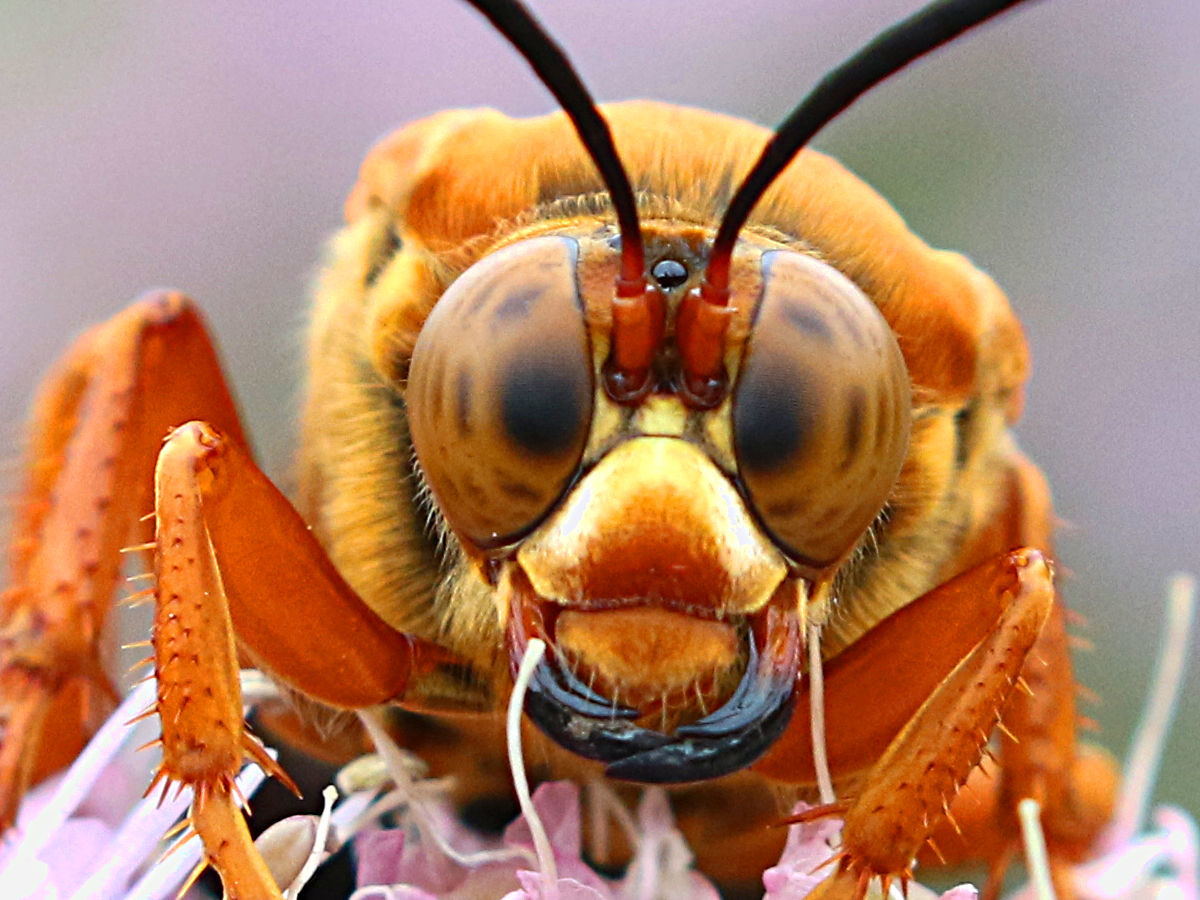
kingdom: Animalia
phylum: Arthropoda
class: Insecta
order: Hymenoptera
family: Crabronidae
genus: Sphecius
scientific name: Sphecius speciosus
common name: Cicada killer
